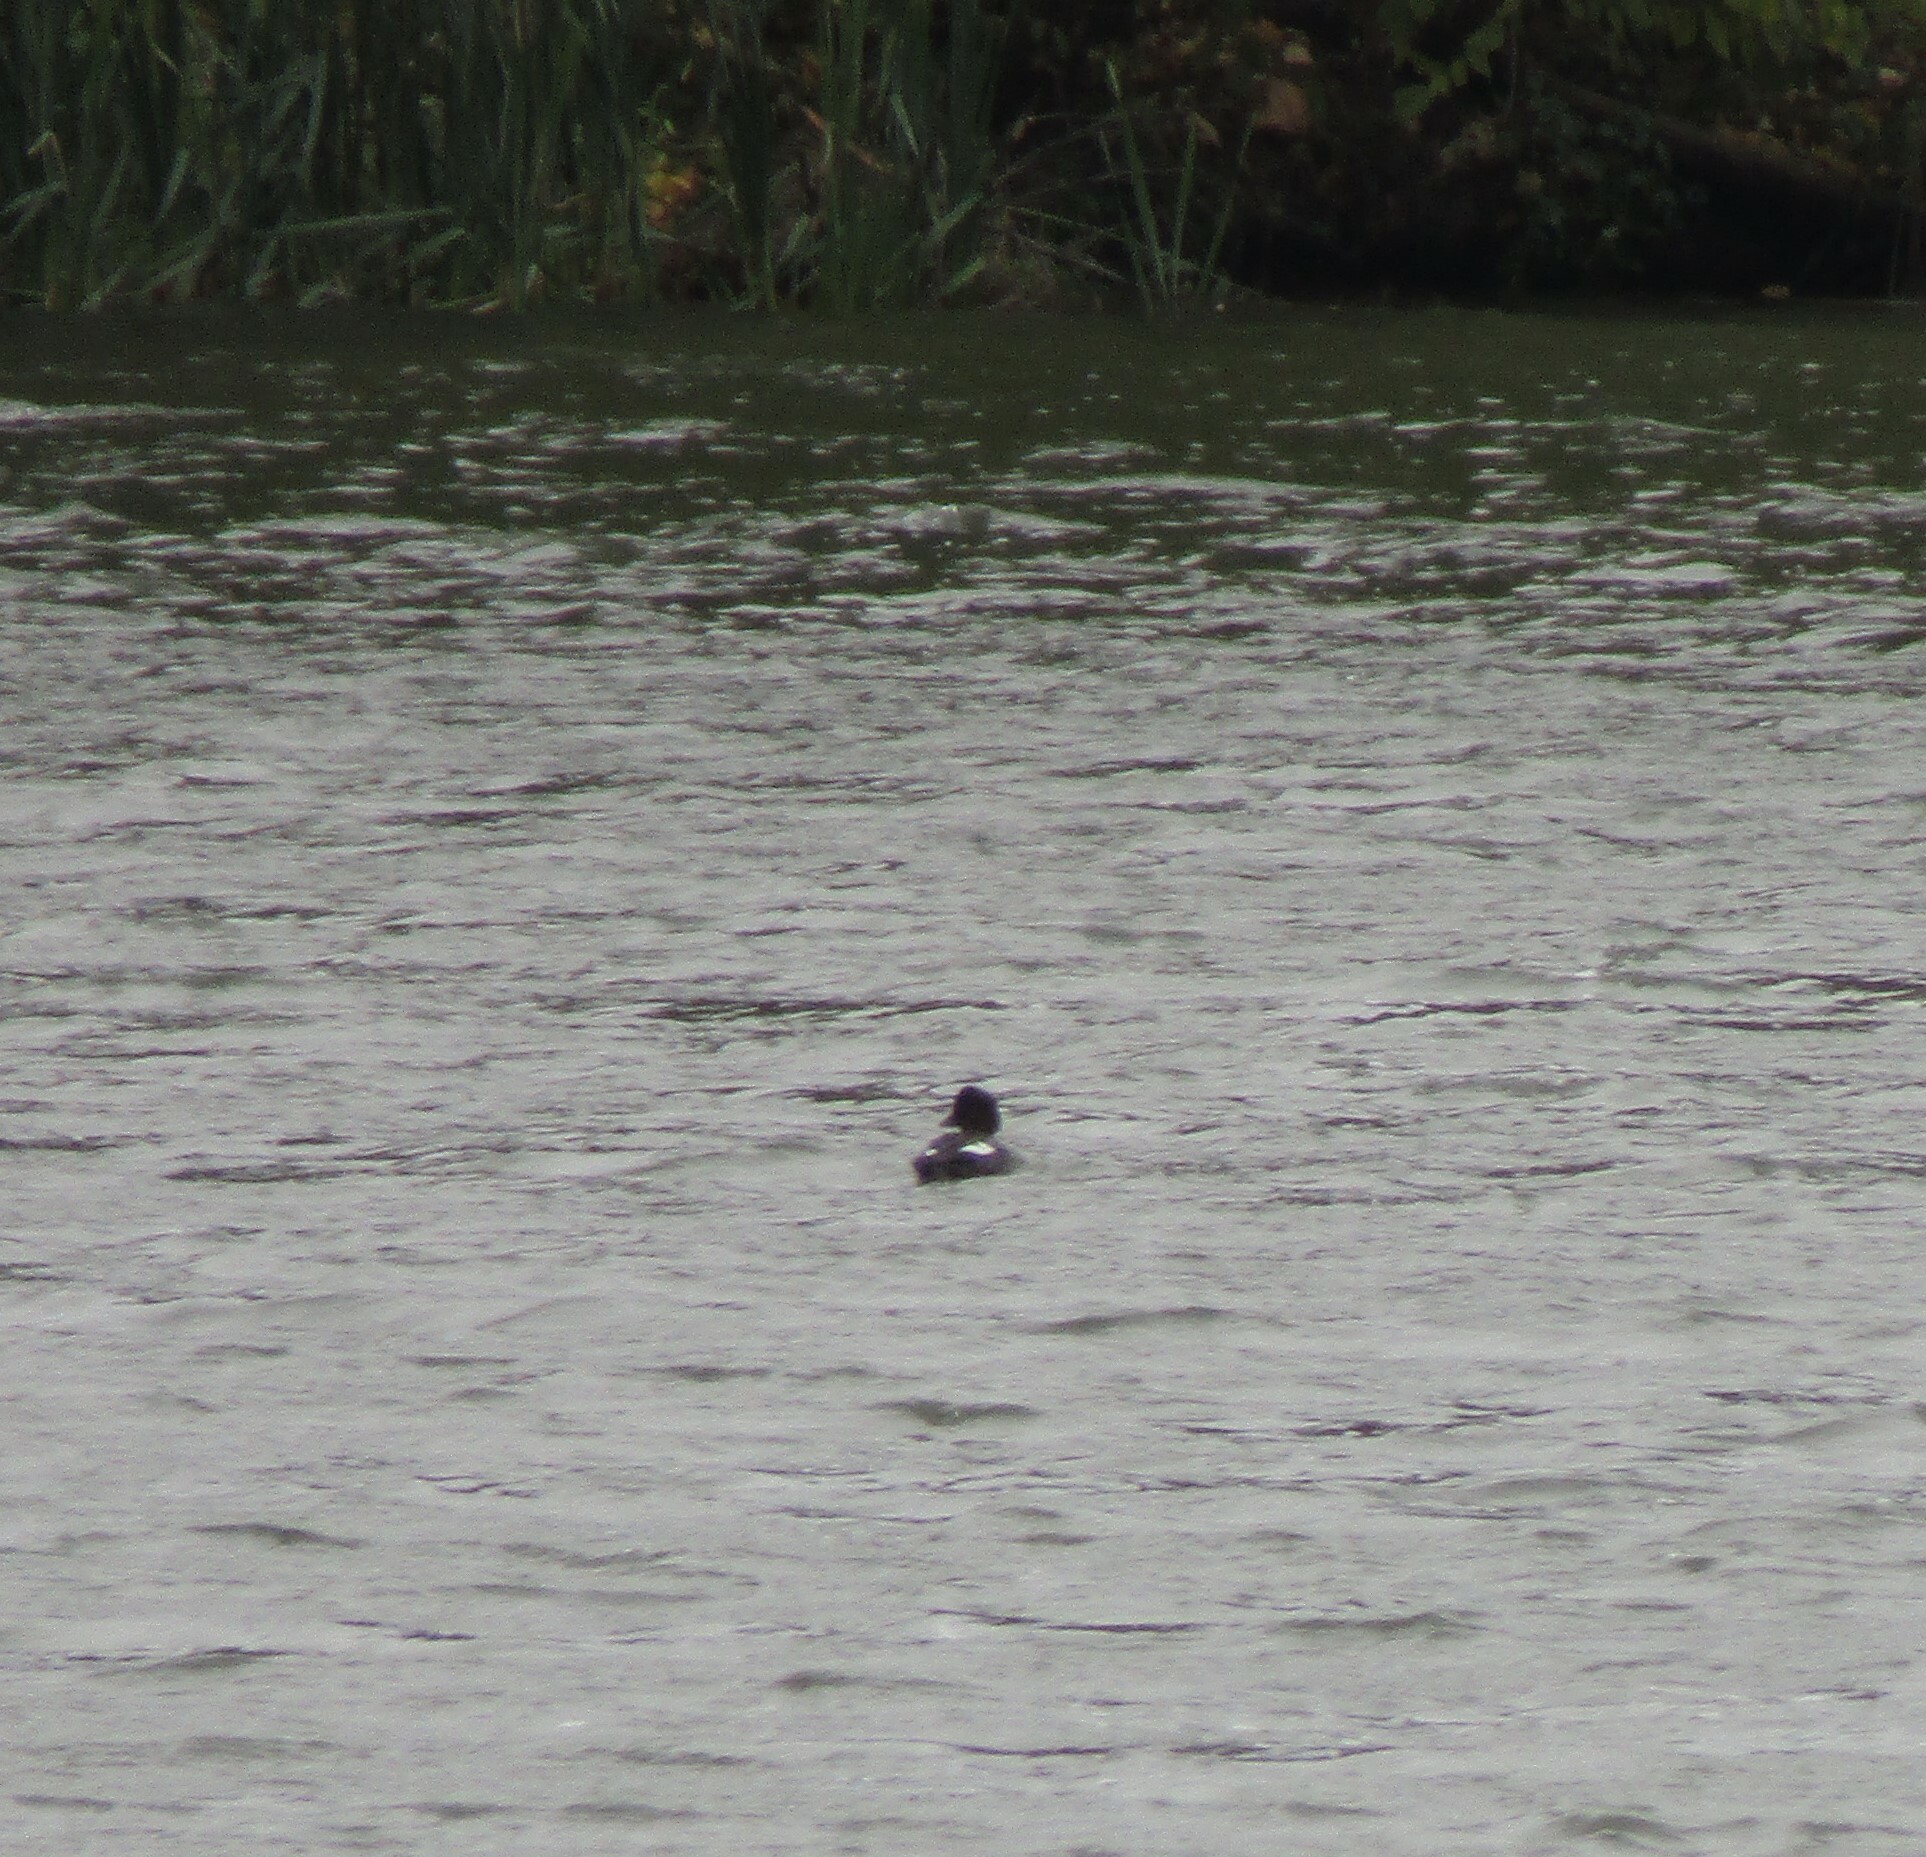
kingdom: Animalia
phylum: Chordata
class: Aves
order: Anseriformes
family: Anatidae
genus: Bucephala
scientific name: Bucephala clangula
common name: Common goldeneye
